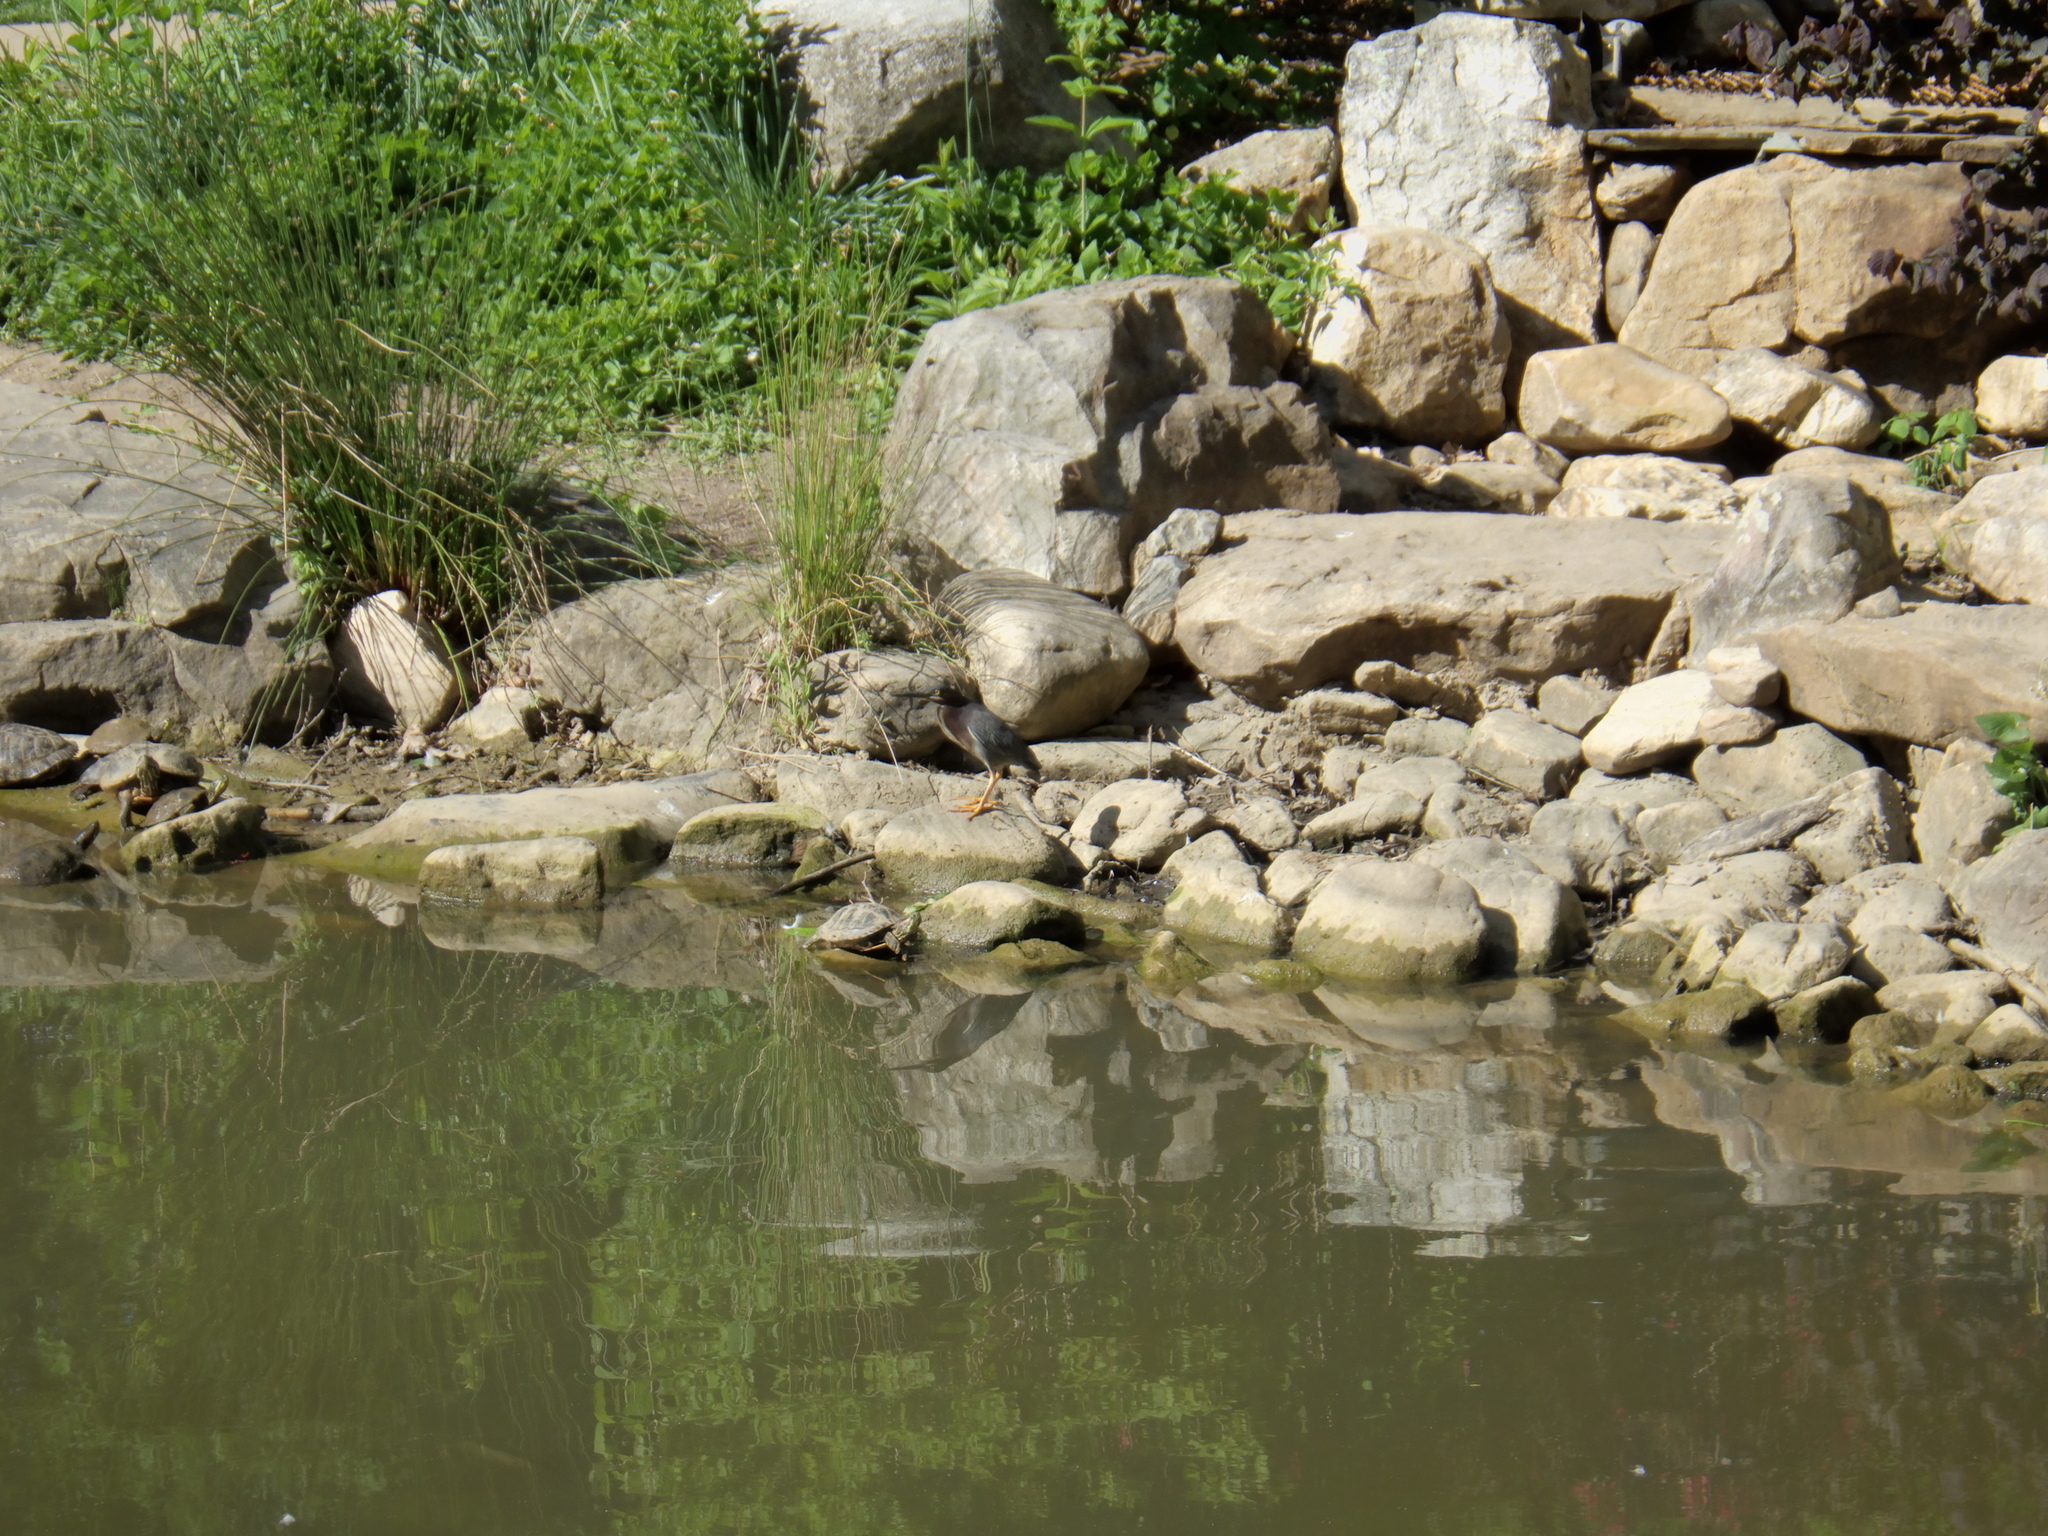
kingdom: Animalia
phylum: Chordata
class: Aves
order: Pelecaniformes
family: Ardeidae
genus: Butorides
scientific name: Butorides virescens
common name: Green heron
